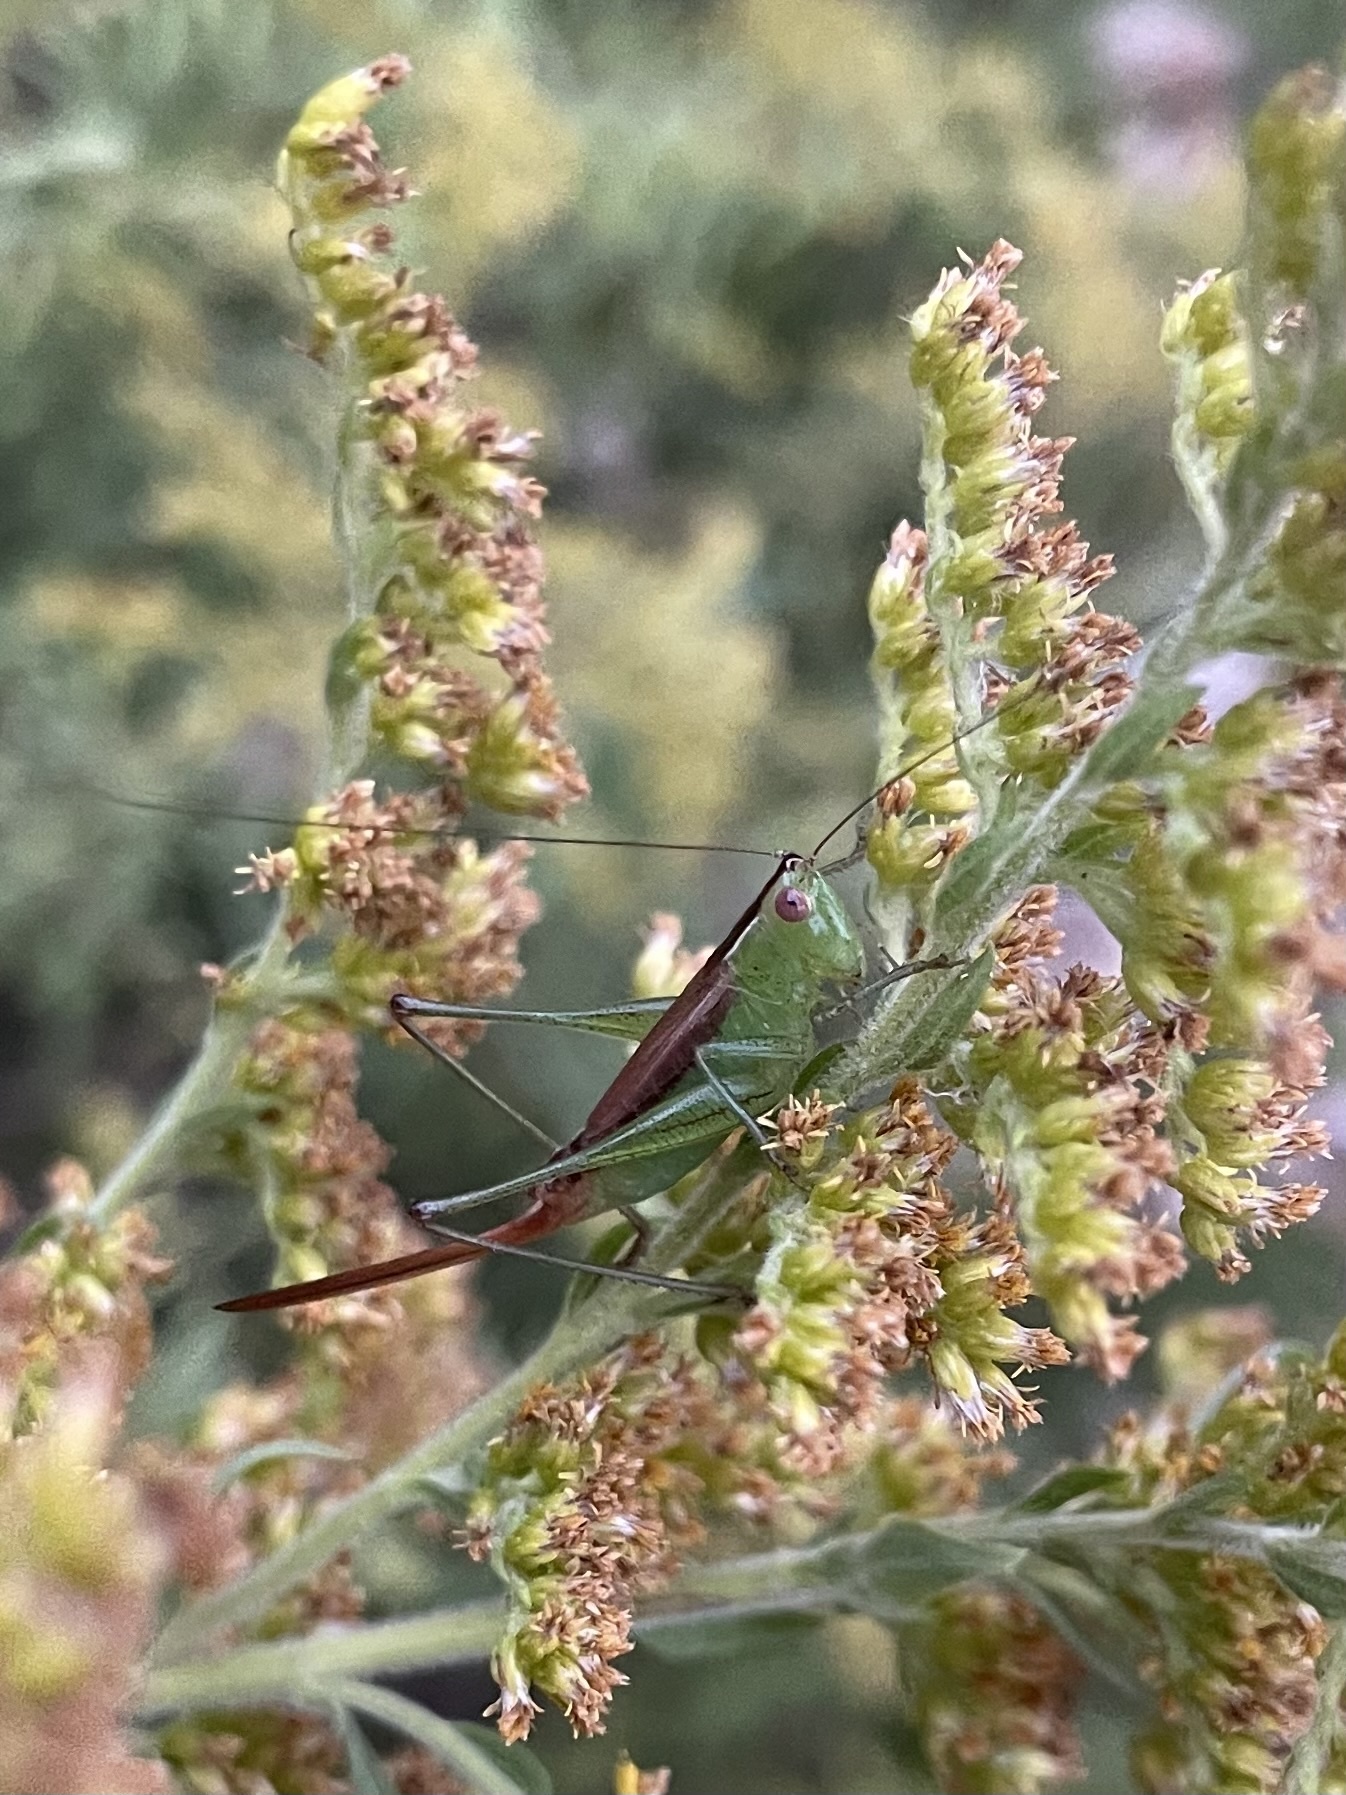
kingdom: Animalia
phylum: Arthropoda
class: Insecta
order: Orthoptera
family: Tettigoniidae
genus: Conocephalus
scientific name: Conocephalus brevipennis
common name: Short-winged meadow katydid
